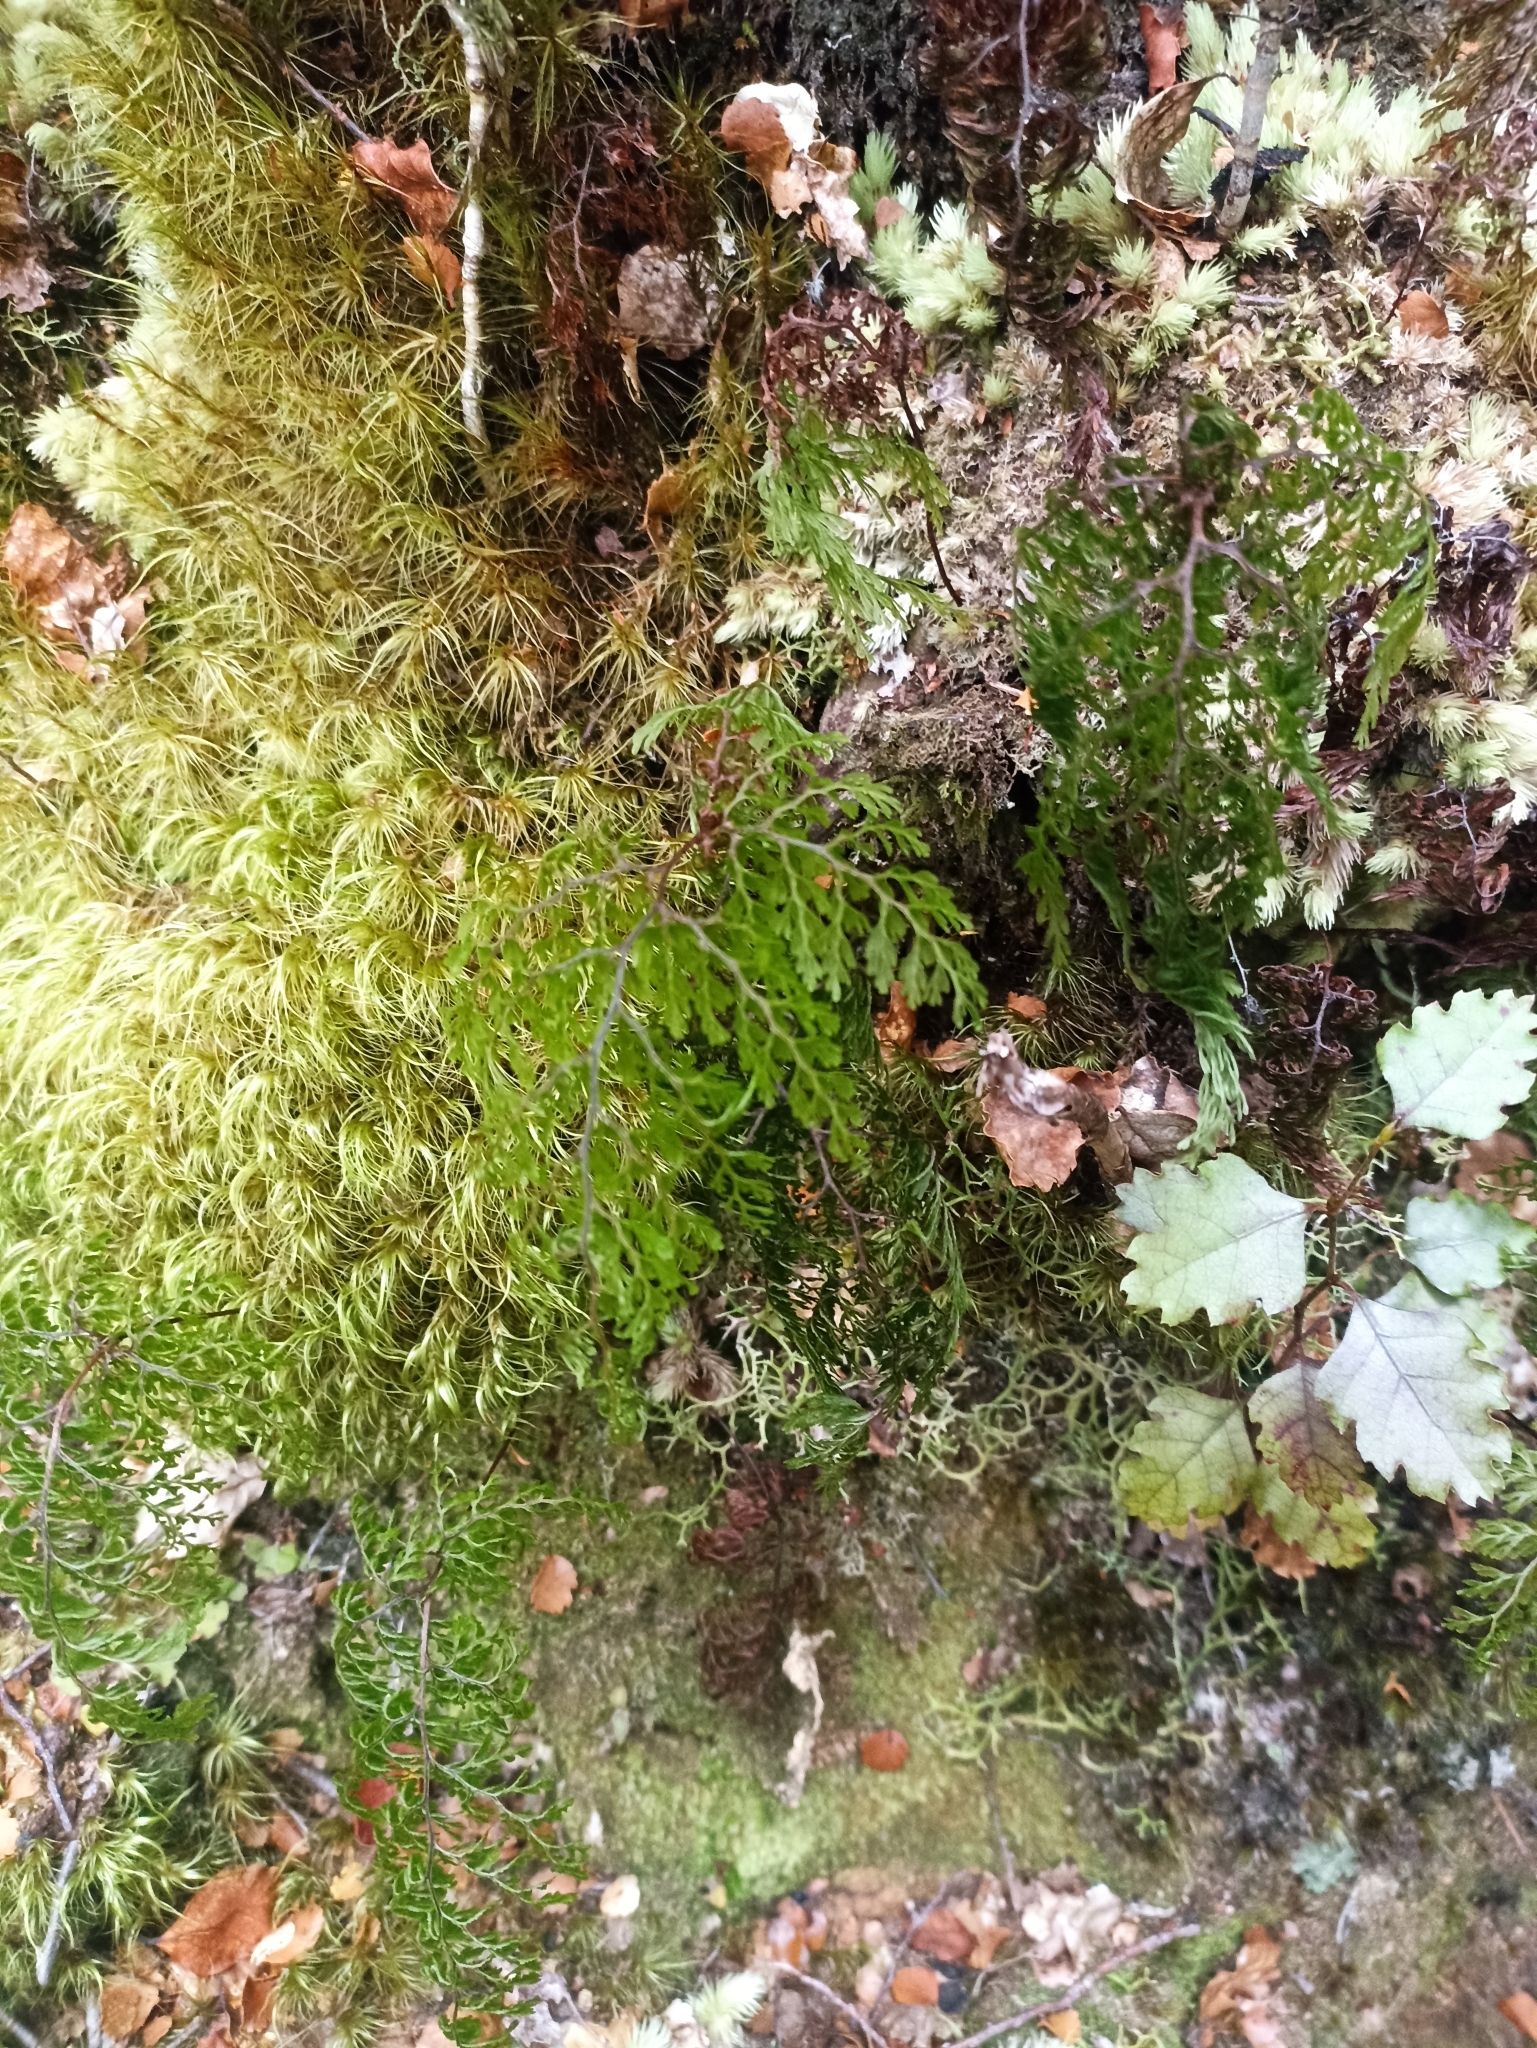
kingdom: Plantae
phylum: Tracheophyta
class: Polypodiopsida
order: Hymenophyllales
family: Hymenophyllaceae
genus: Hymenophyllum
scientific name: Hymenophyllum bivalve
